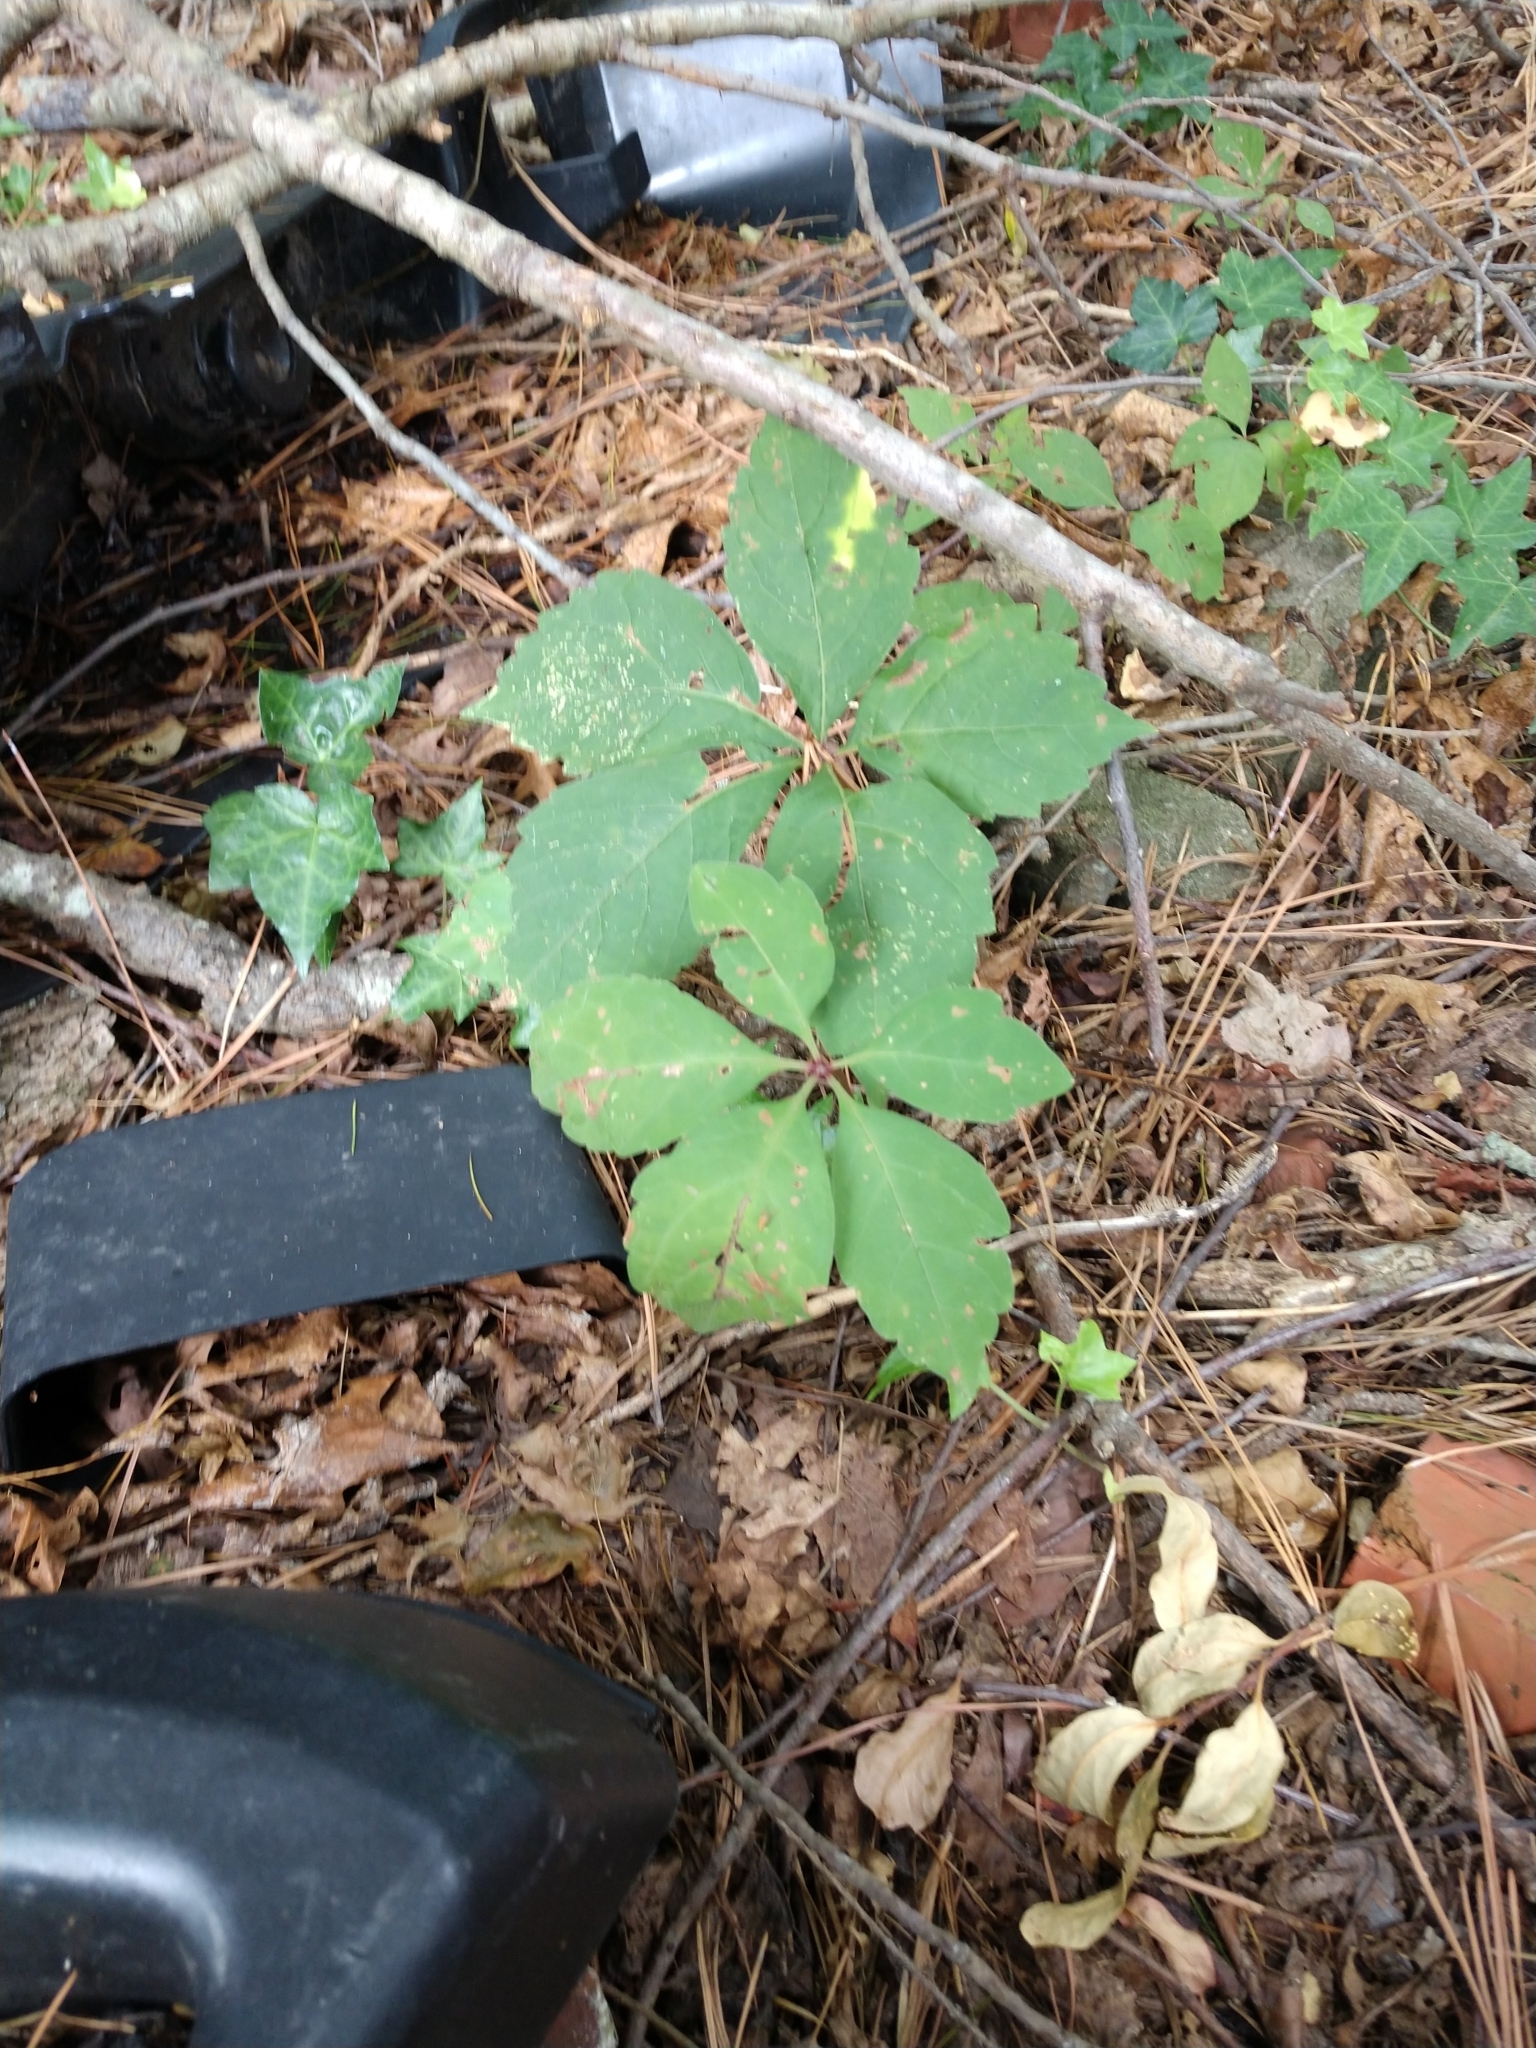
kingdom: Plantae
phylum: Tracheophyta
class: Magnoliopsida
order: Vitales
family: Vitaceae
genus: Parthenocissus
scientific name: Parthenocissus quinquefolia
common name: Virginia-creeper
